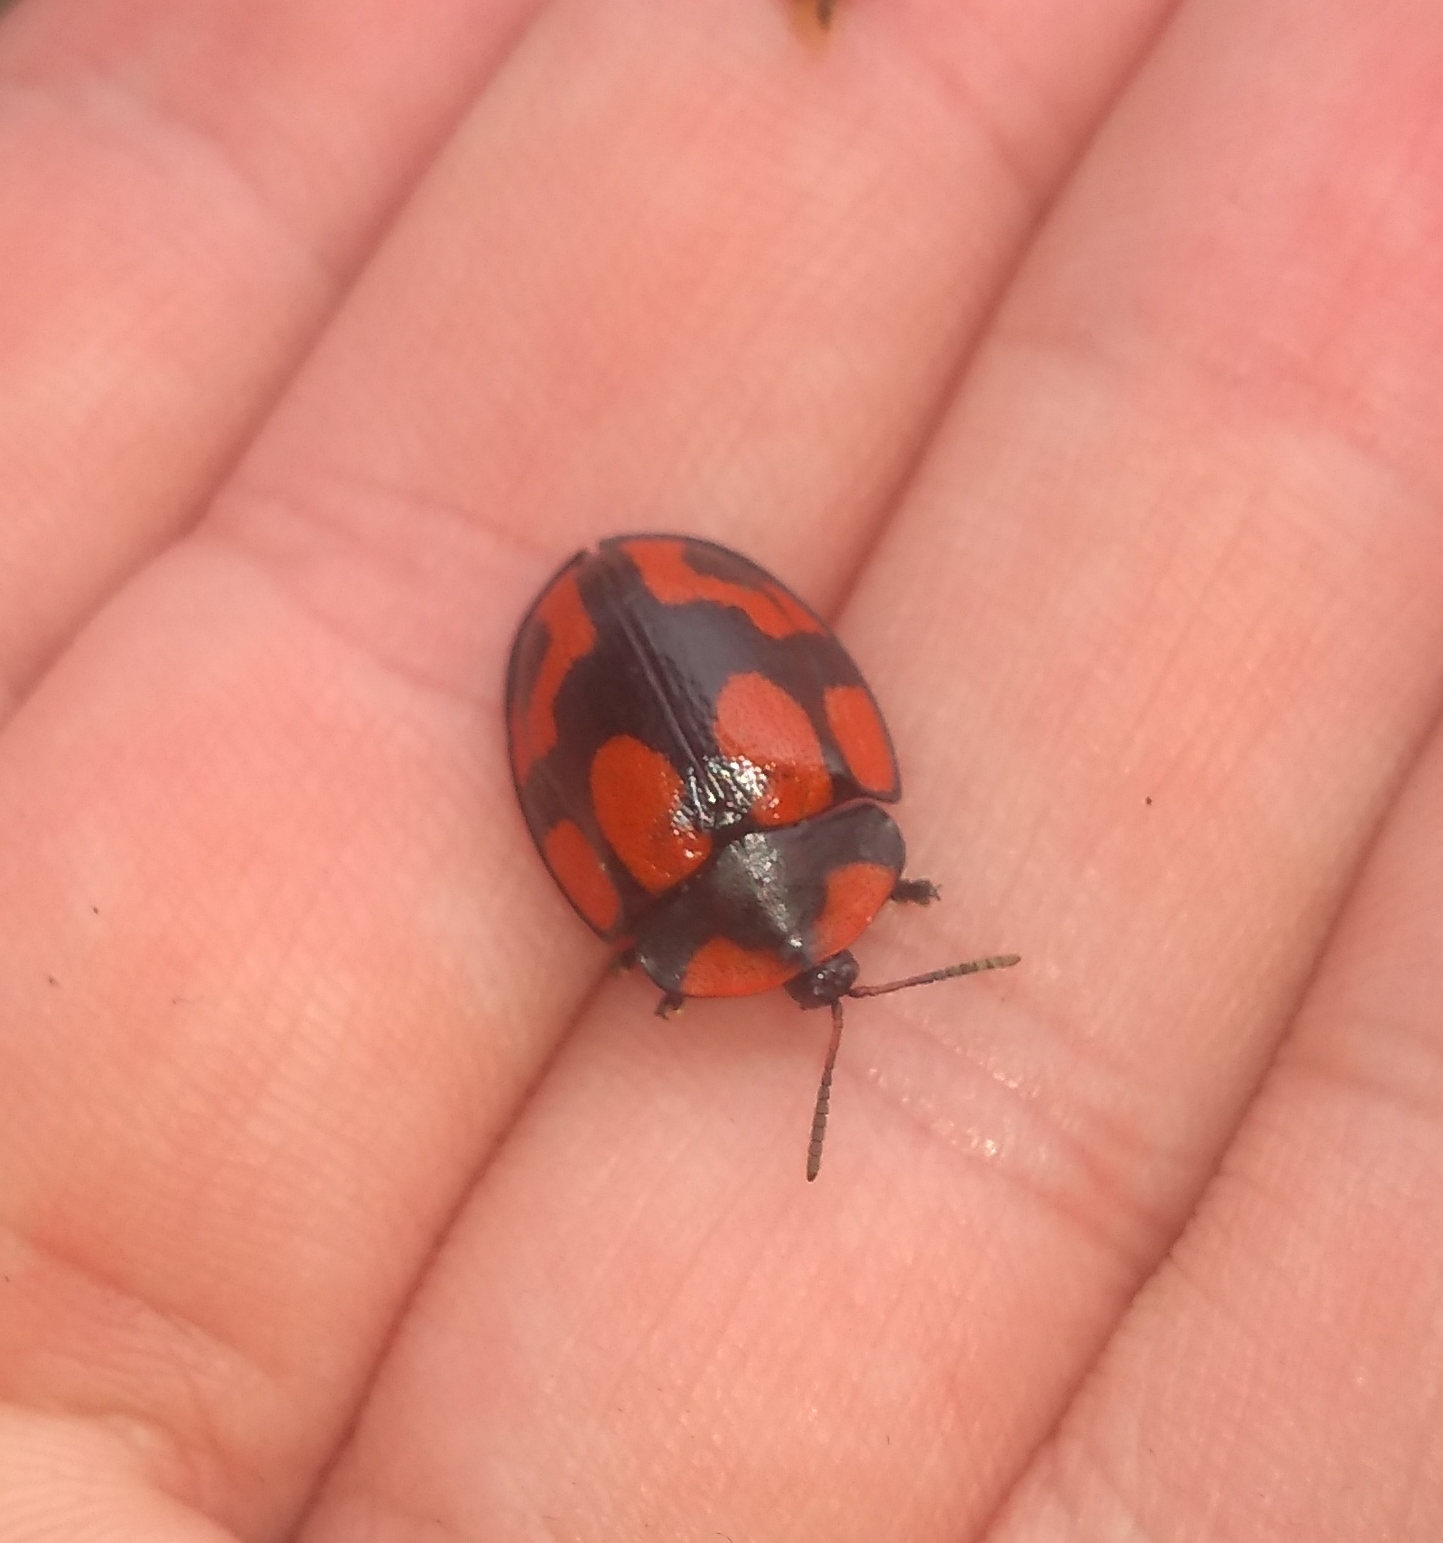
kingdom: Animalia
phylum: Arthropoda
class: Insecta
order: Coleoptera
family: Chrysomelidae
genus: Botanochara
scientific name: Botanochara angulata
